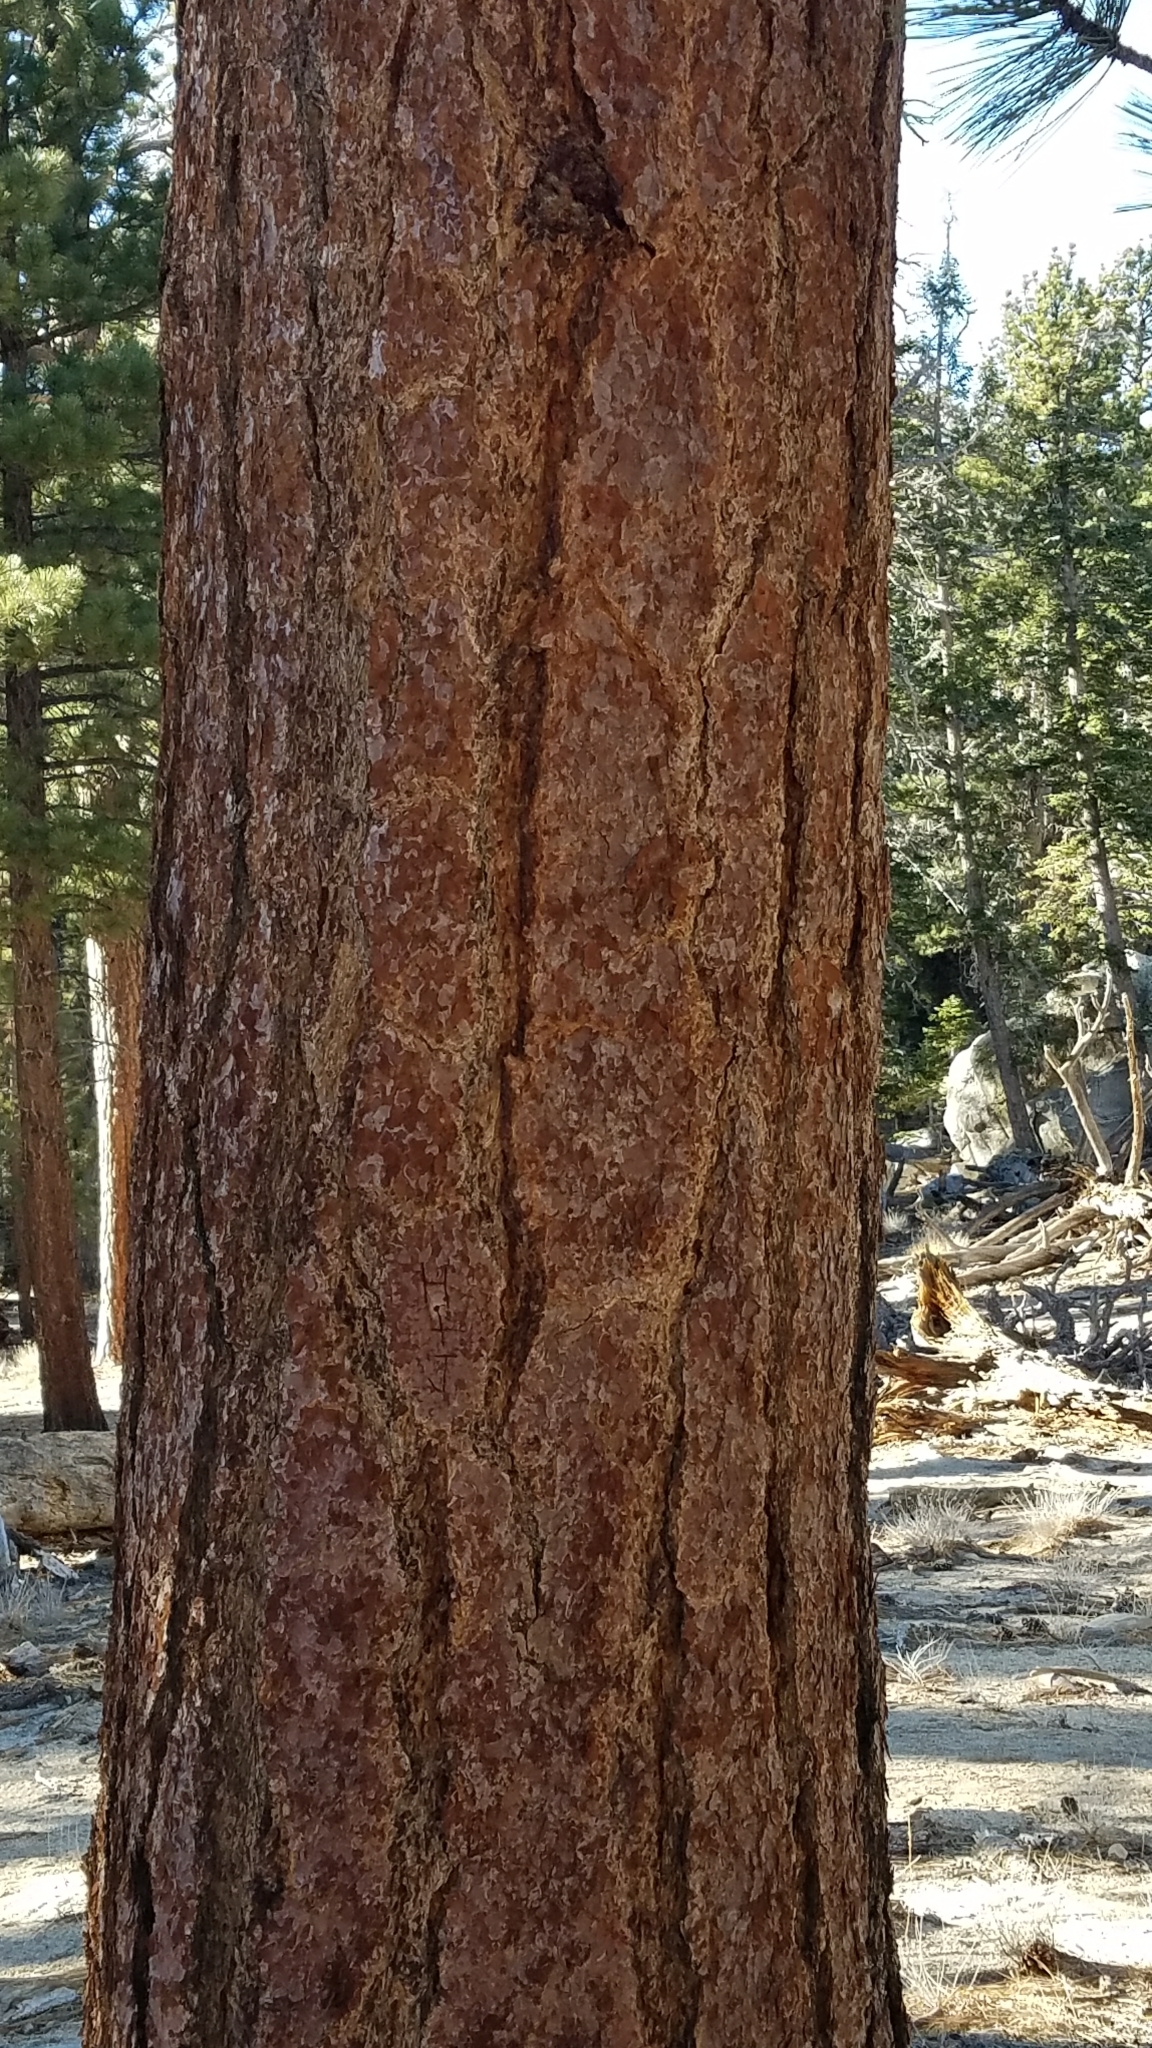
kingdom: Plantae
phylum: Tracheophyta
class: Pinopsida
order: Pinales
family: Pinaceae
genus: Pinus
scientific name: Pinus jeffreyi
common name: Jeffrey pine
